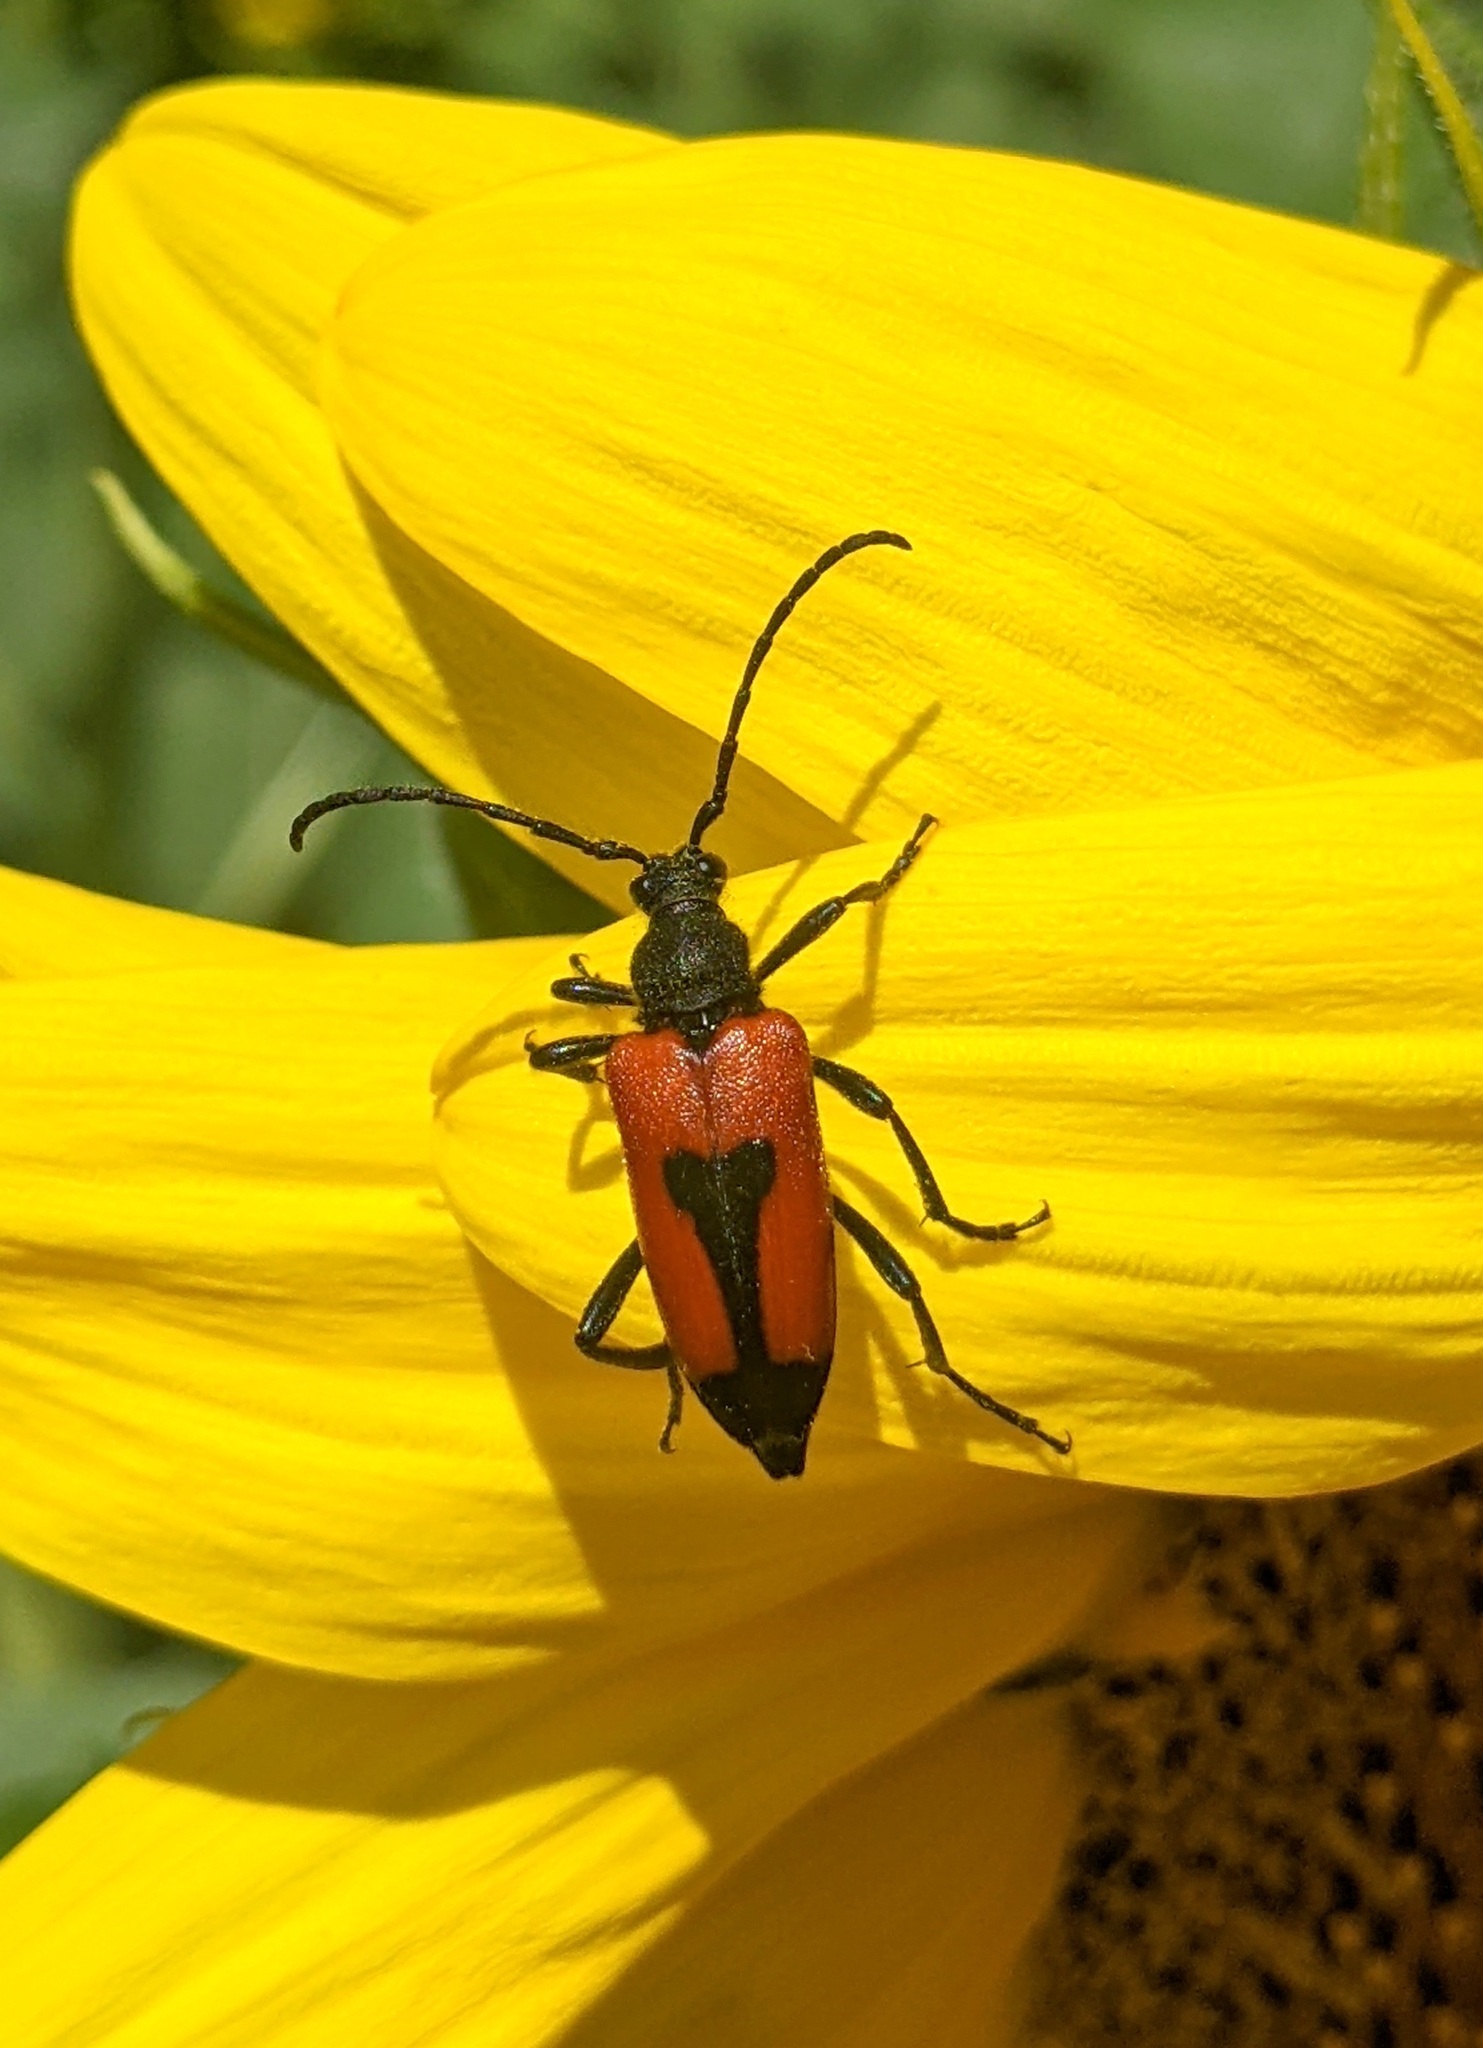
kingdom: Animalia
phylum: Arthropoda
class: Insecta
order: Coleoptera
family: Cerambycidae
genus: Stictoleptura
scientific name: Stictoleptura cordigera
